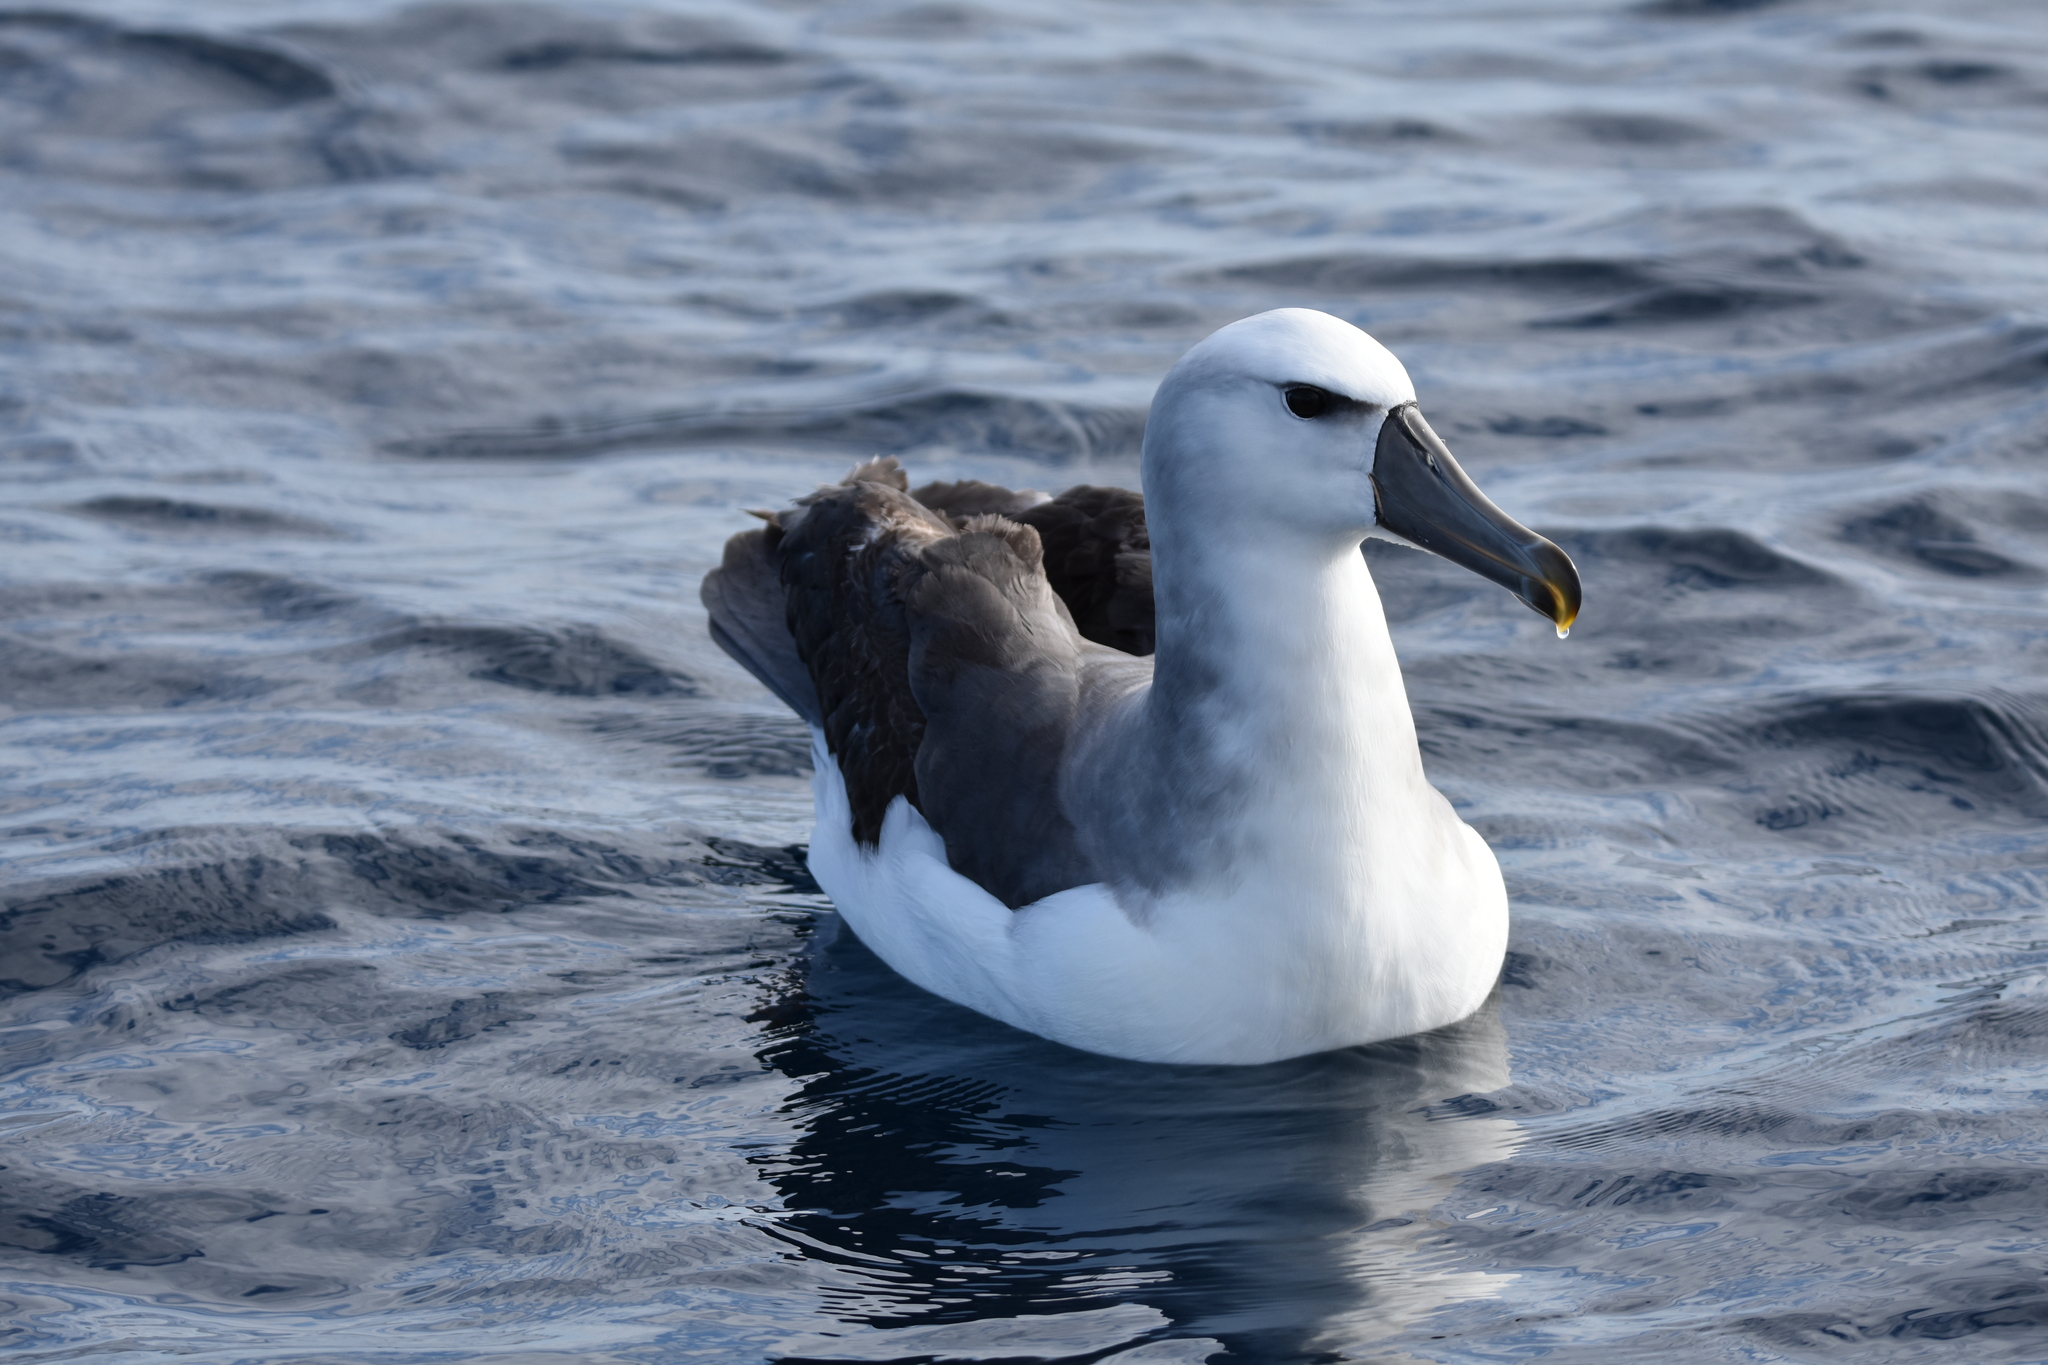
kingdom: Animalia
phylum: Chordata
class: Aves
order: Procellariiformes
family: Diomedeidae
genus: Thalassarche
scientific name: Thalassarche cauta
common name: Shy albatross
